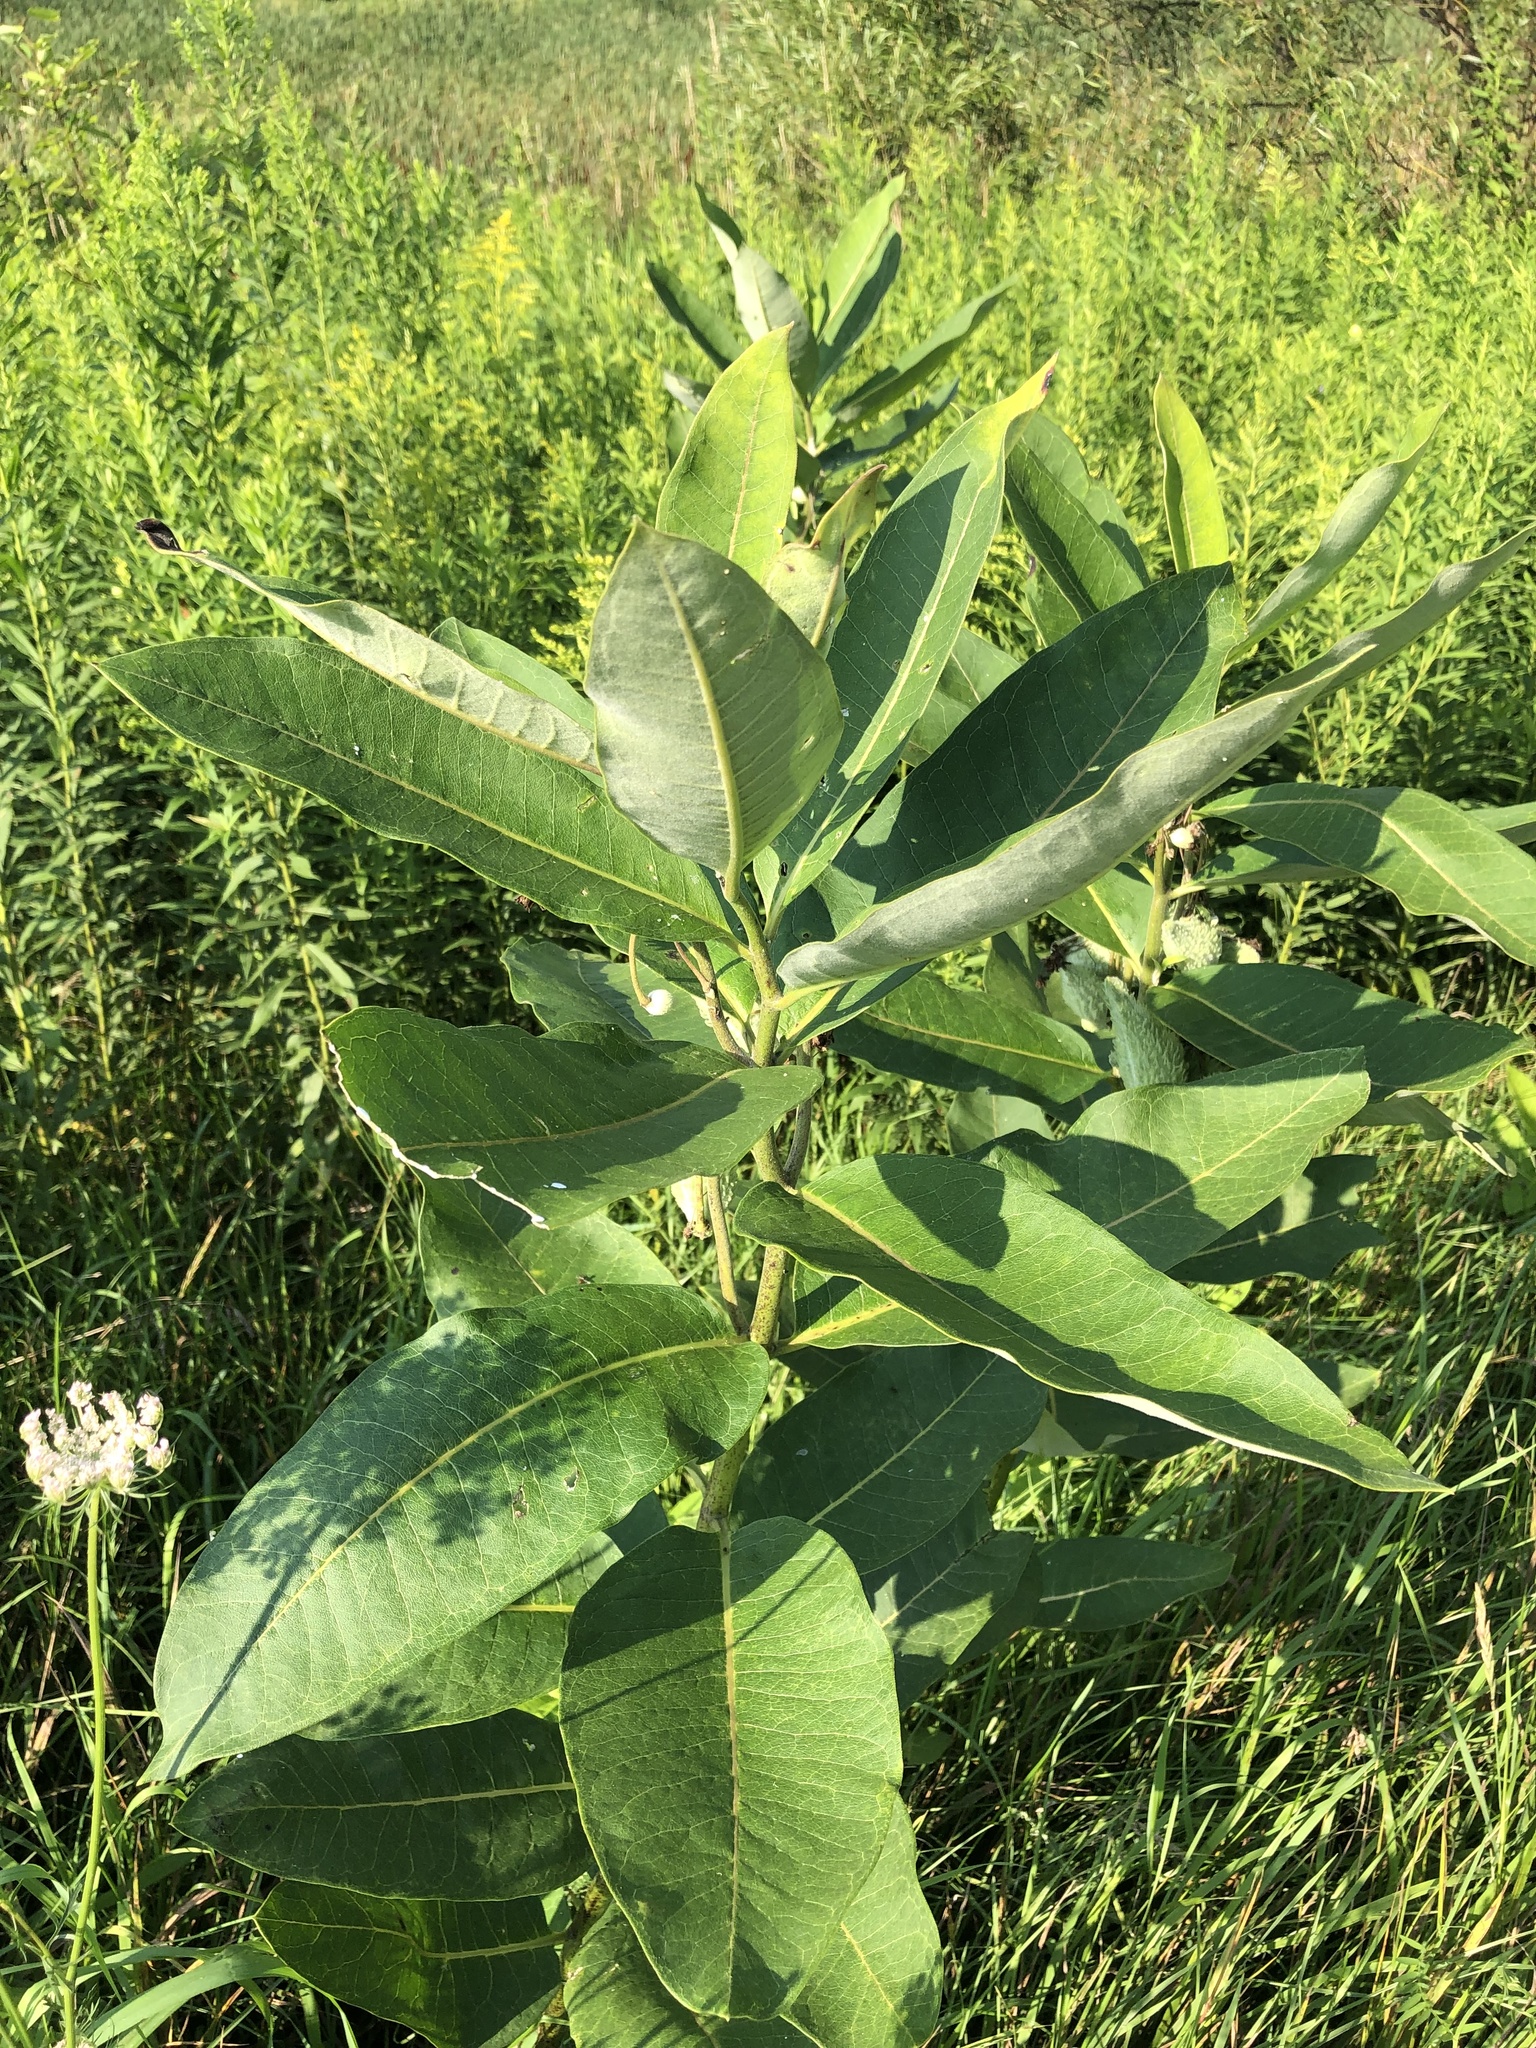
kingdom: Plantae
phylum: Tracheophyta
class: Magnoliopsida
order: Gentianales
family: Apocynaceae
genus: Asclepias
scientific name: Asclepias syriaca
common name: Common milkweed
